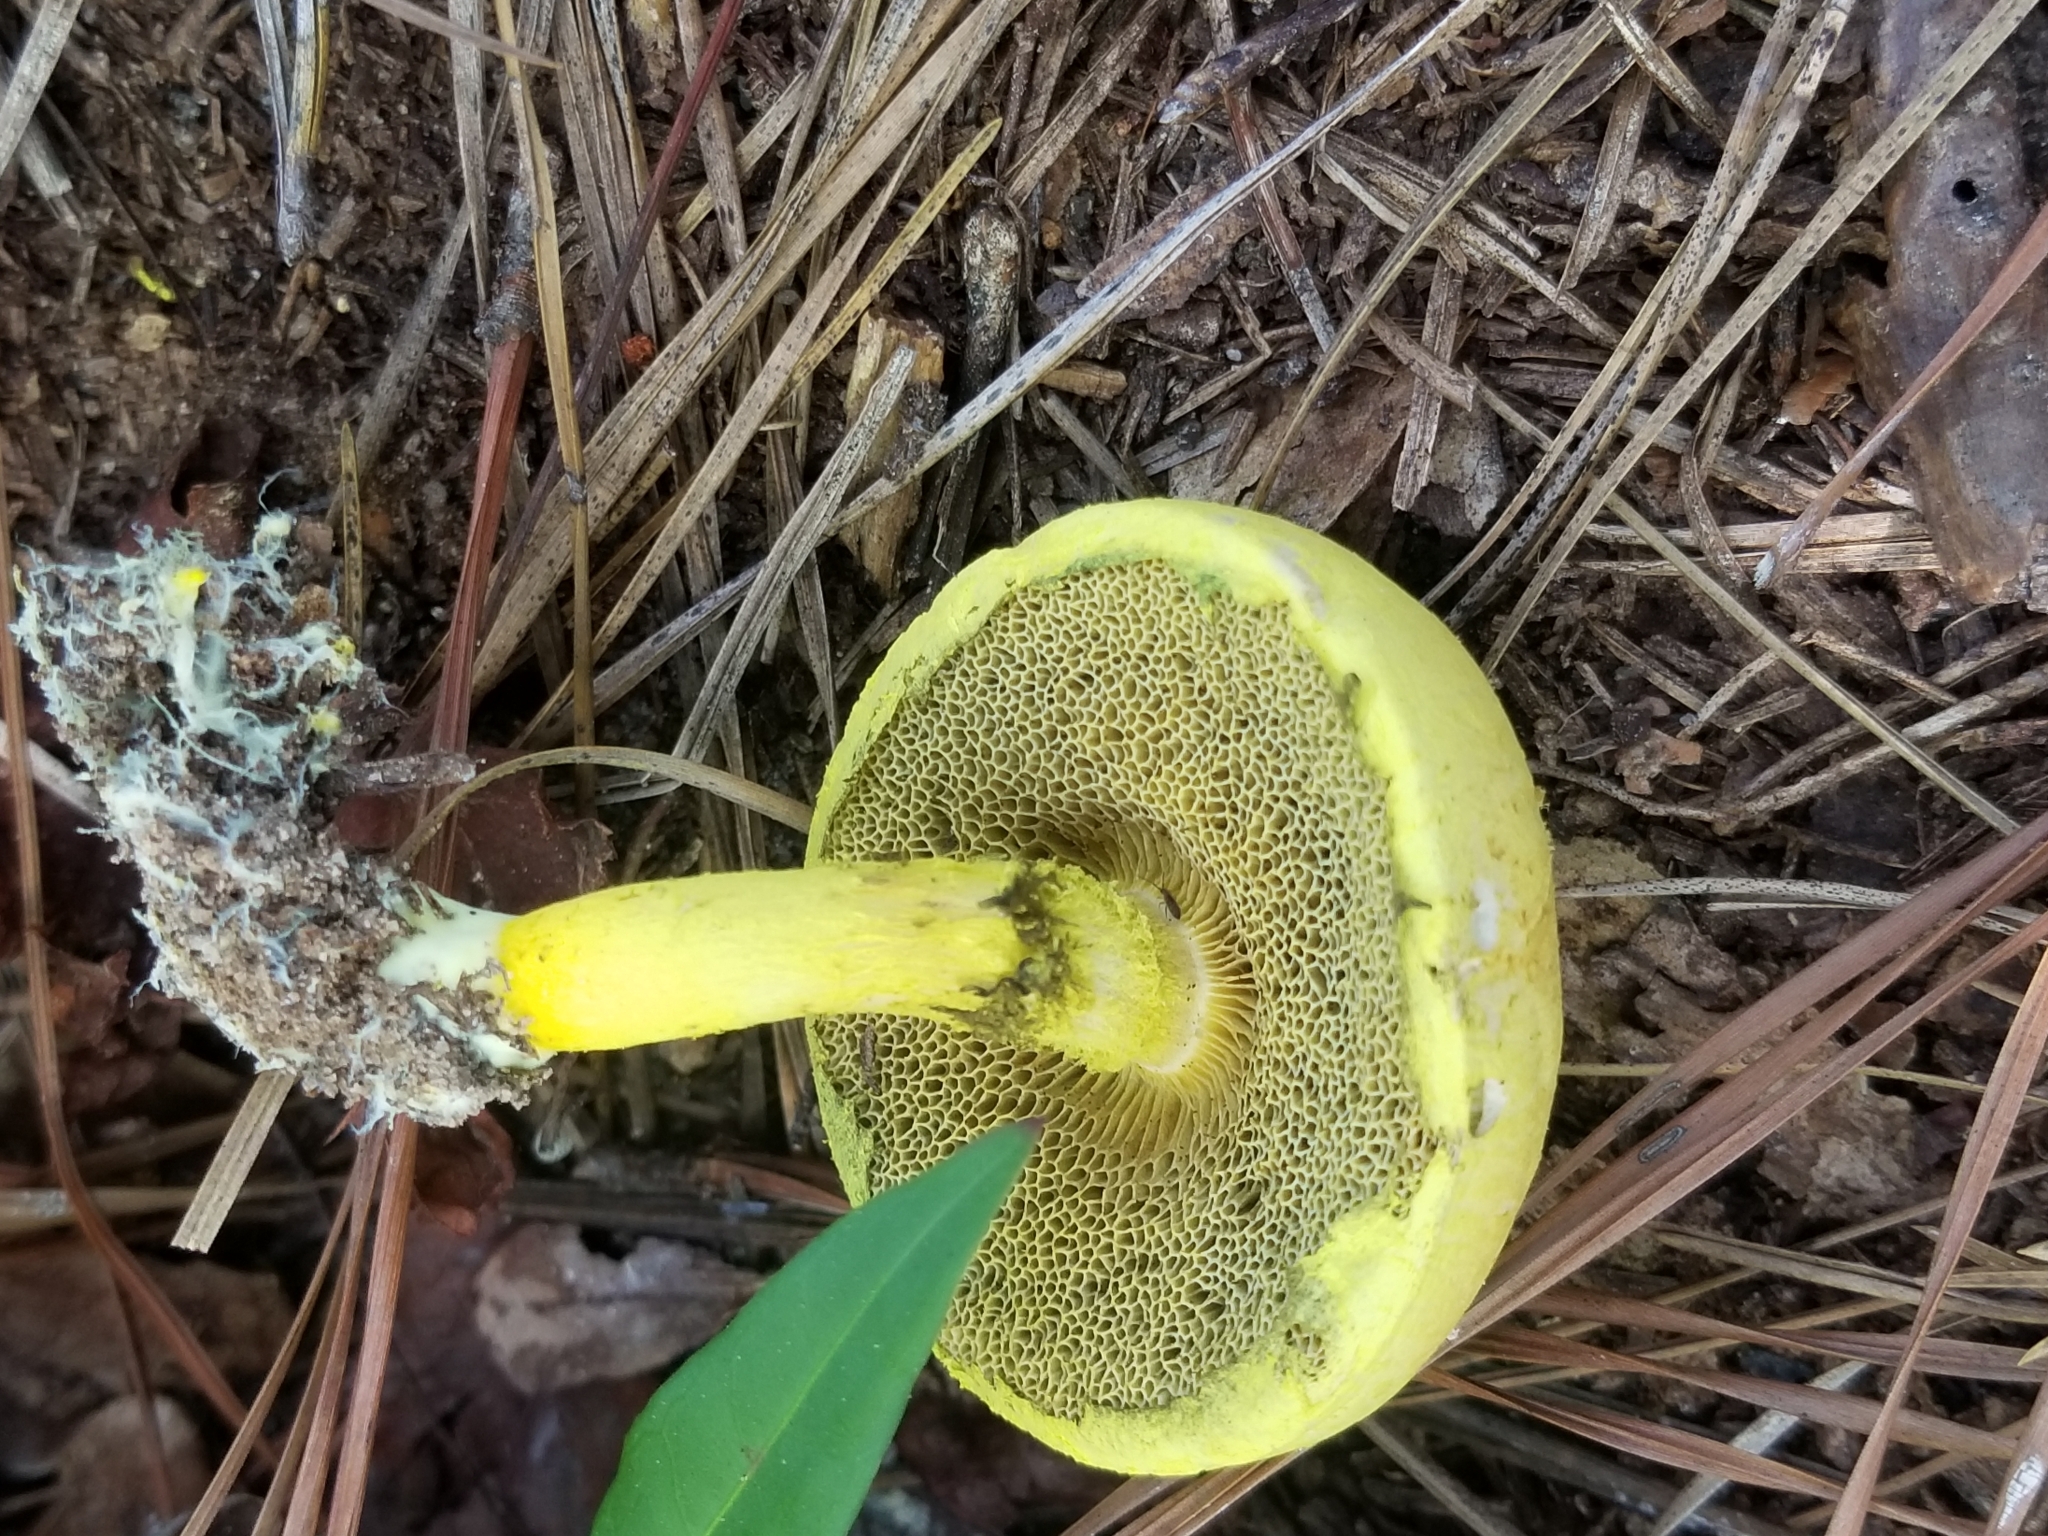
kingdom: Fungi
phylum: Basidiomycota
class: Agaricomycetes
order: Boletales
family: Boletaceae
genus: Pulveroboletus
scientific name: Pulveroboletus ravenelii
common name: Powdery sulfur bolete
